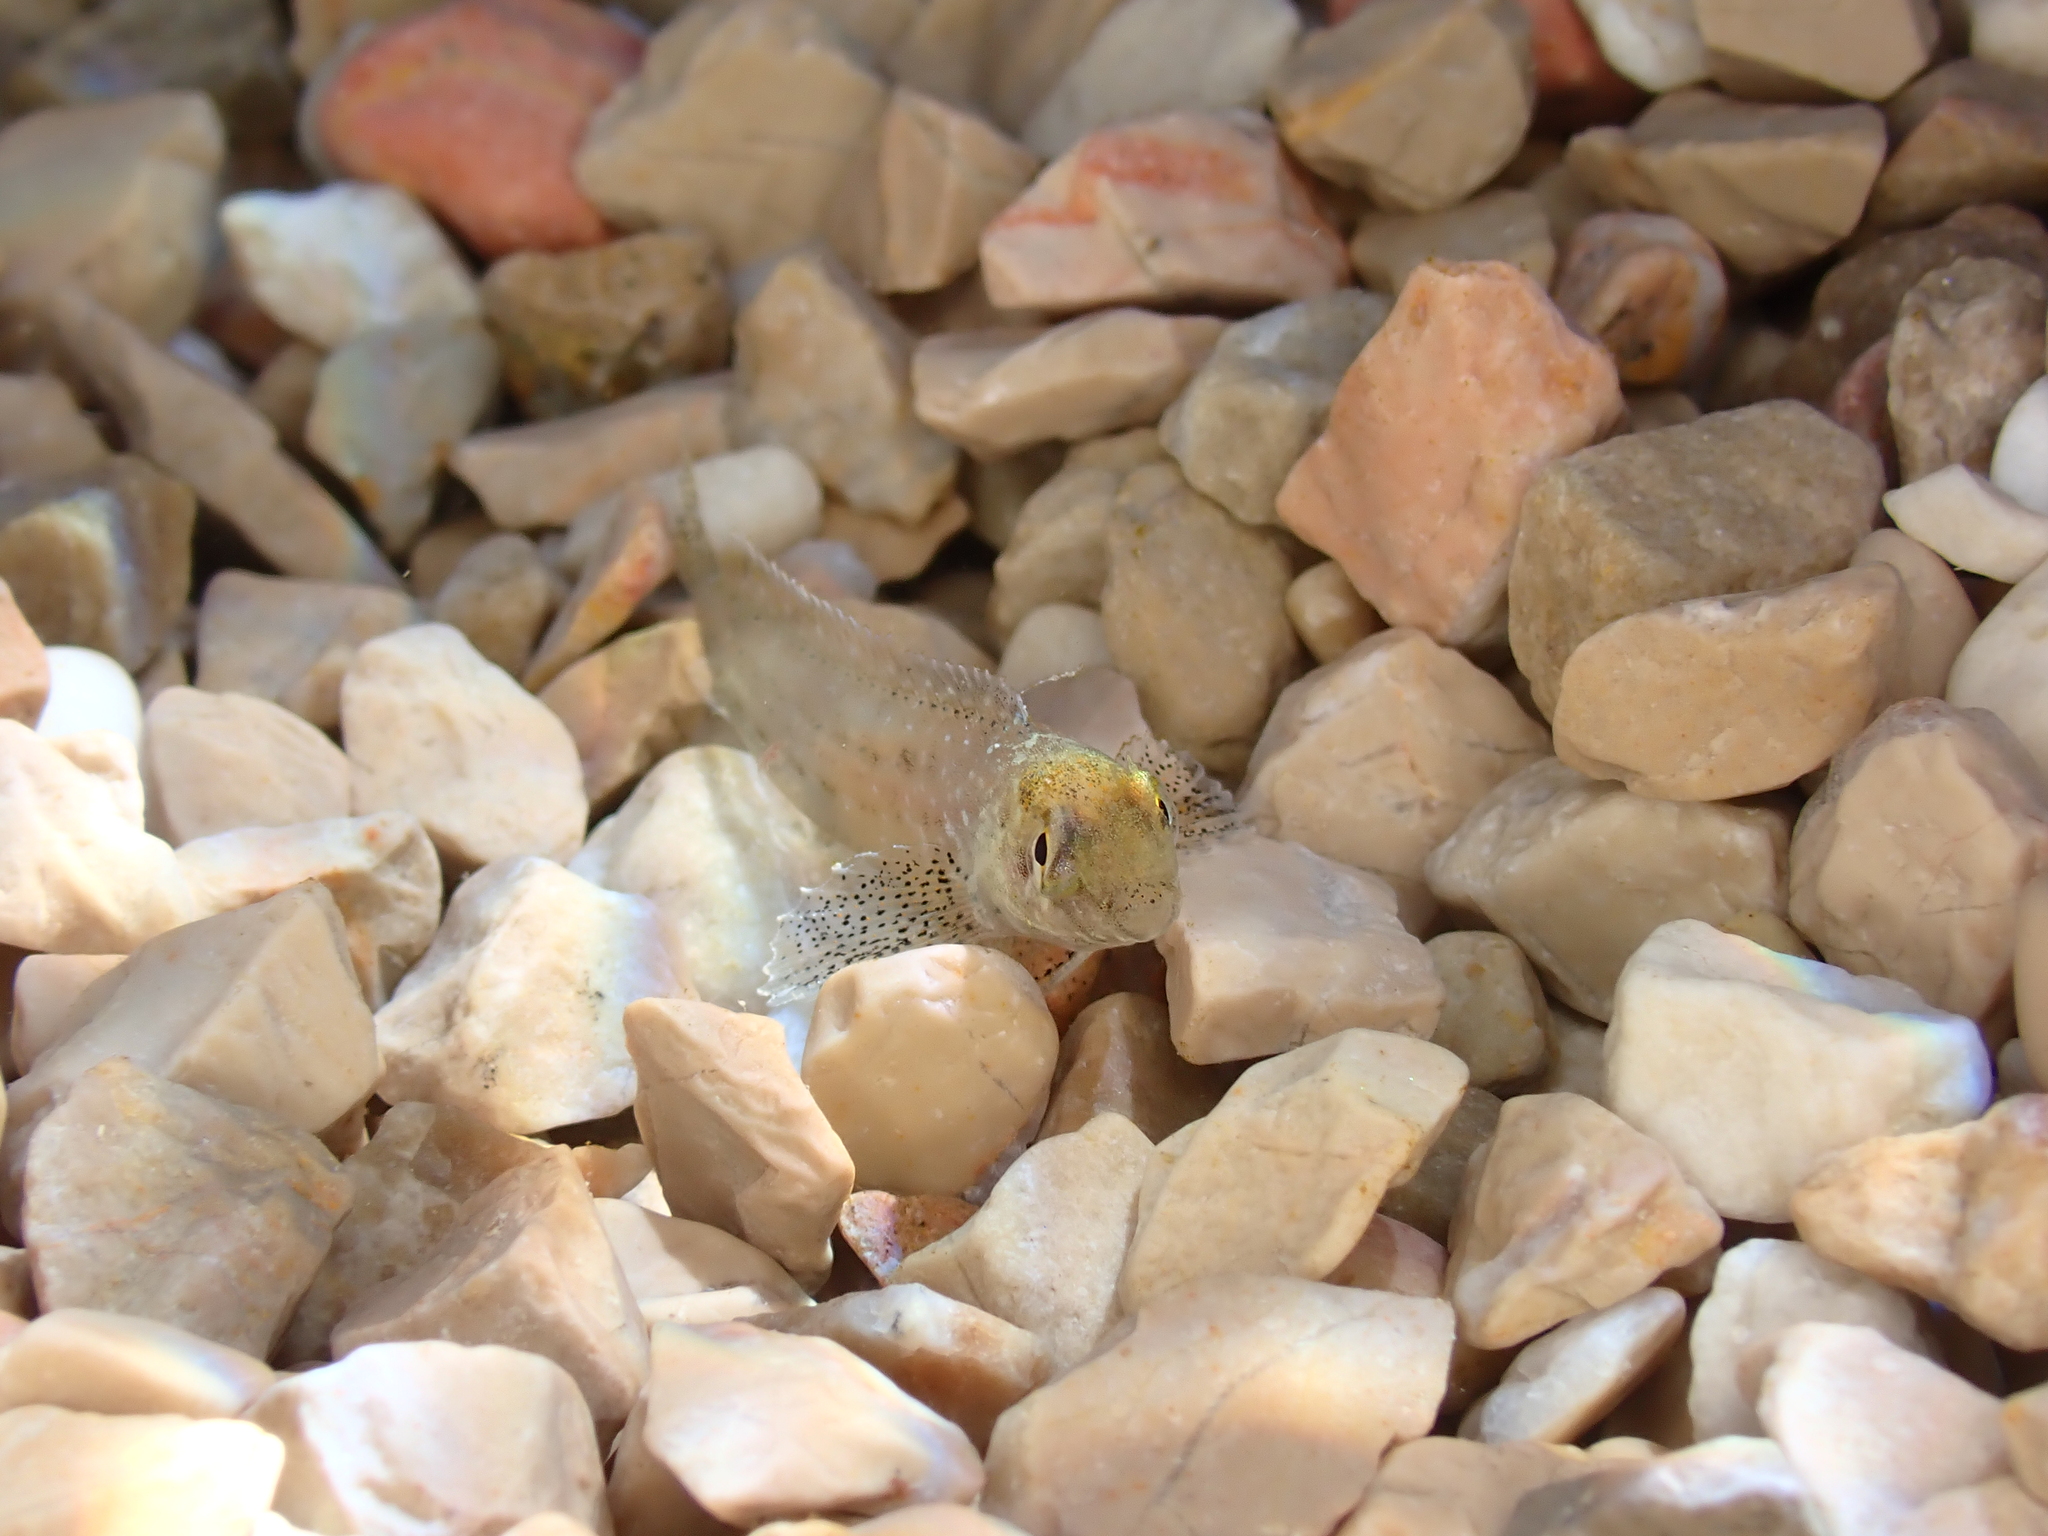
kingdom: Animalia
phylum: Chordata
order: Perciformes
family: Blenniidae
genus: Parablennius
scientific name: Parablennius sanguinolentus
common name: Black sea blenny
